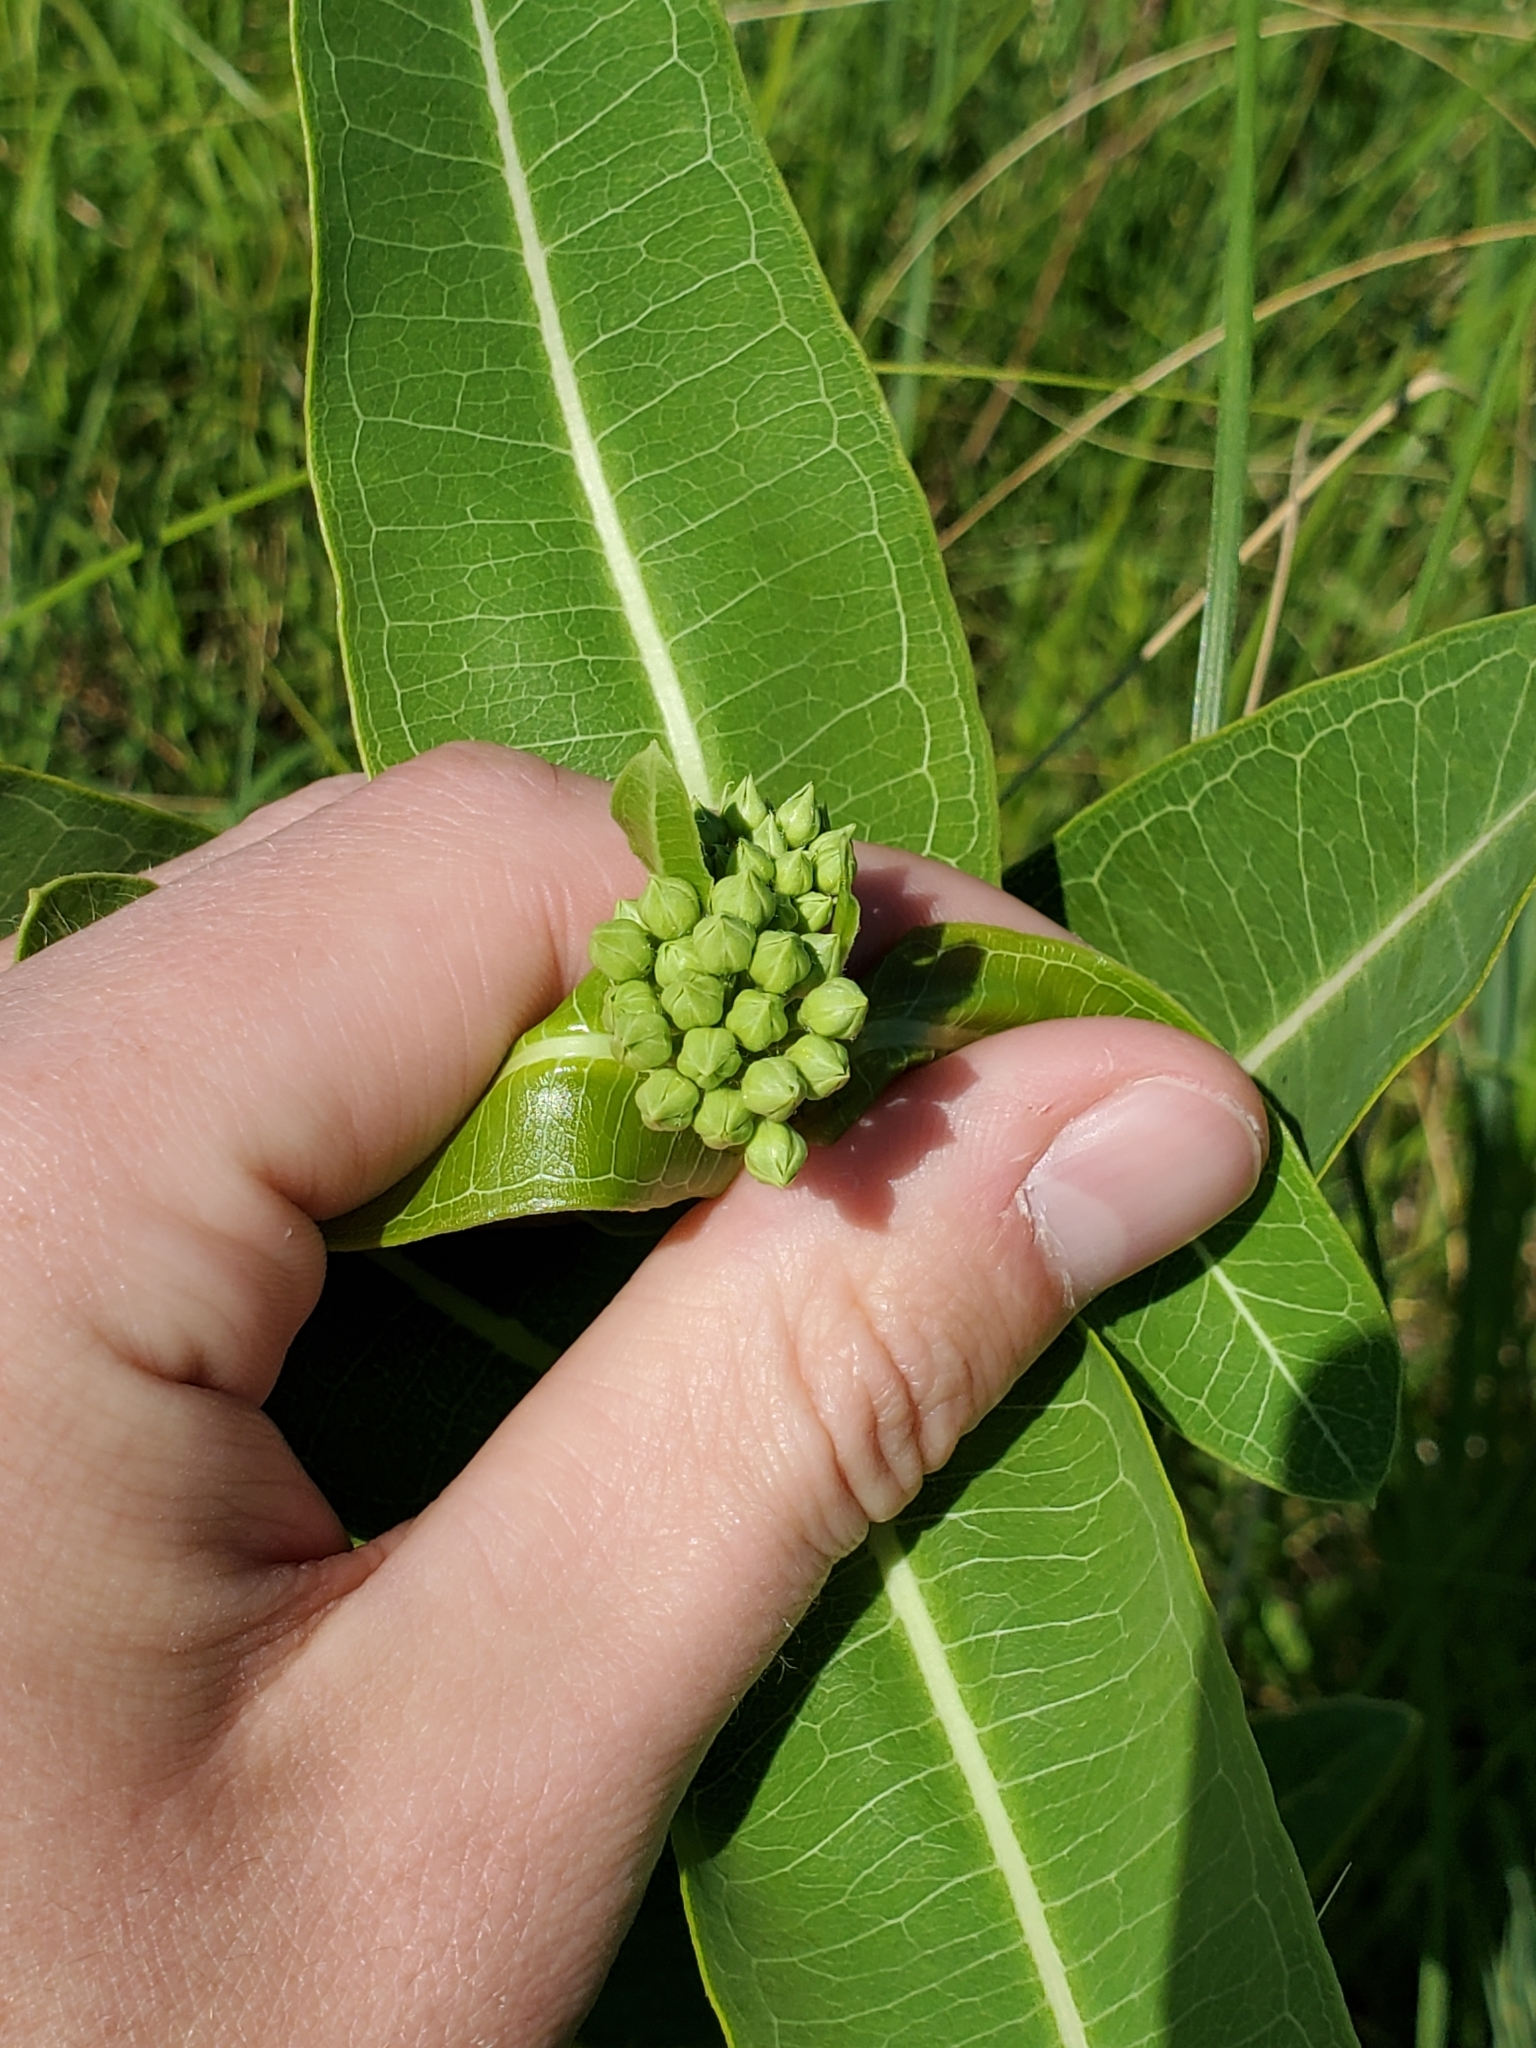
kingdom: Plantae
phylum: Tracheophyta
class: Magnoliopsida
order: Gentianales
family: Apocynaceae
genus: Asclepias
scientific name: Asclepias sullivantii
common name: Prairie milkweed
